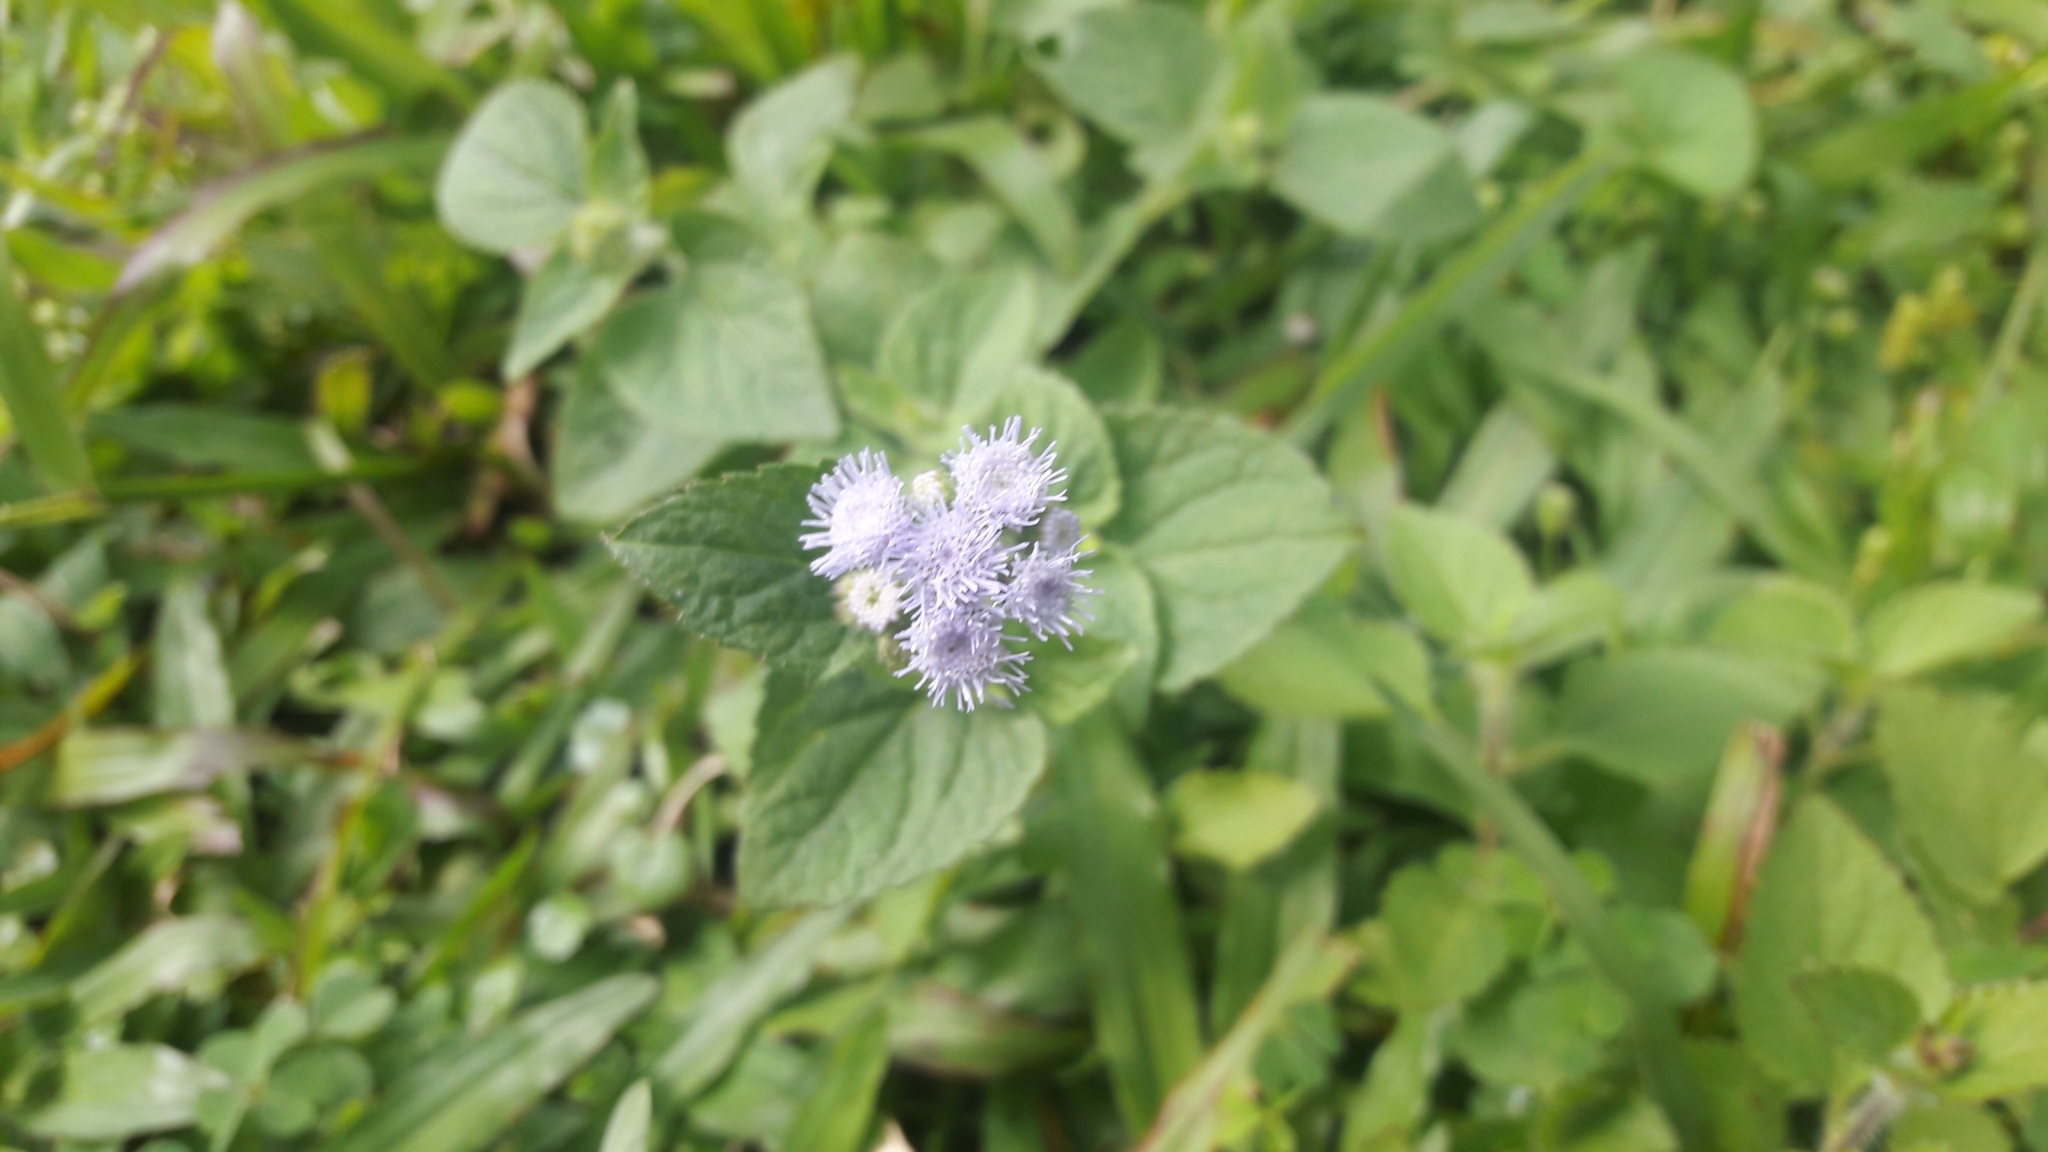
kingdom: Plantae
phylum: Tracheophyta
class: Magnoliopsida
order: Asterales
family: Asteraceae
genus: Ageratum
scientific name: Ageratum conyzoides
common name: Tropical whiteweed
